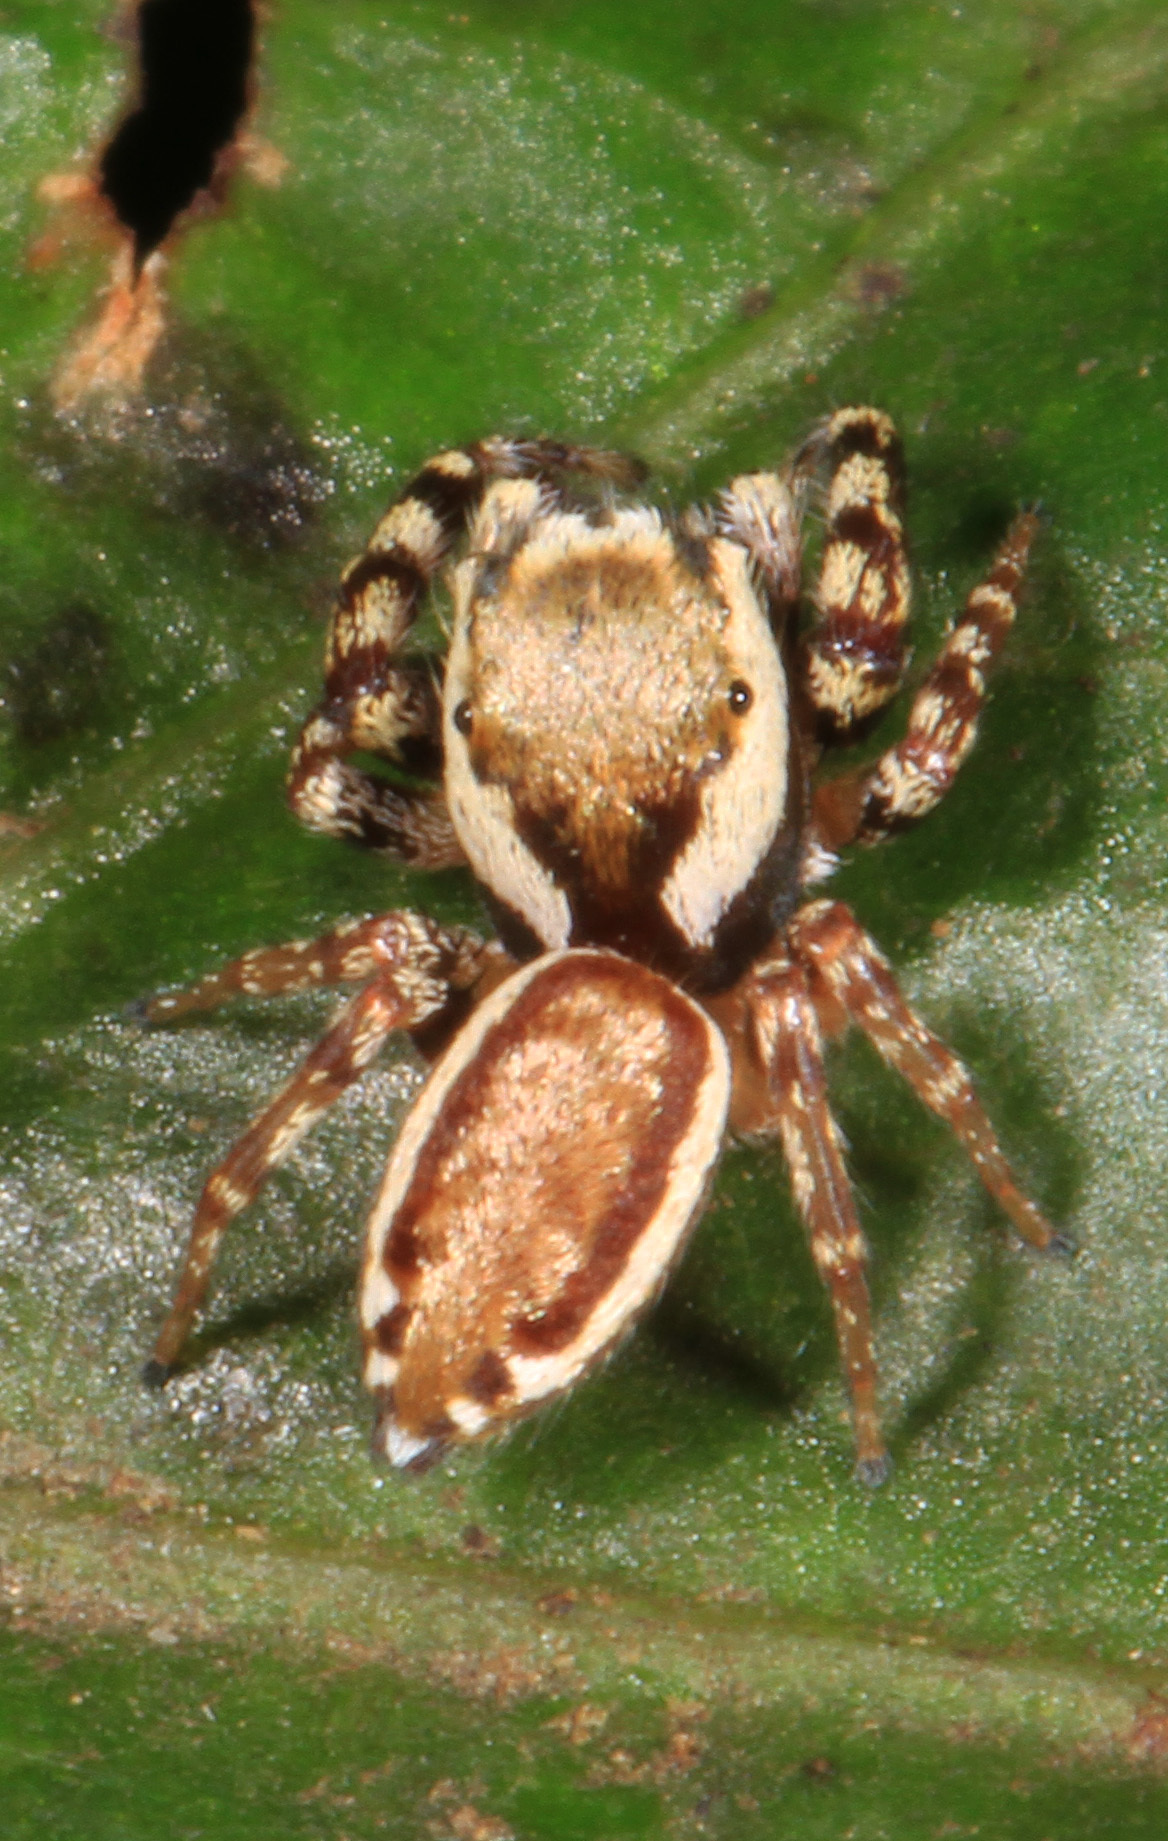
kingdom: Animalia
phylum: Arthropoda
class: Arachnida
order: Araneae
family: Salticidae
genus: Pelegrina
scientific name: Pelegrina proterva
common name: Common white-cheeked jumping spider
